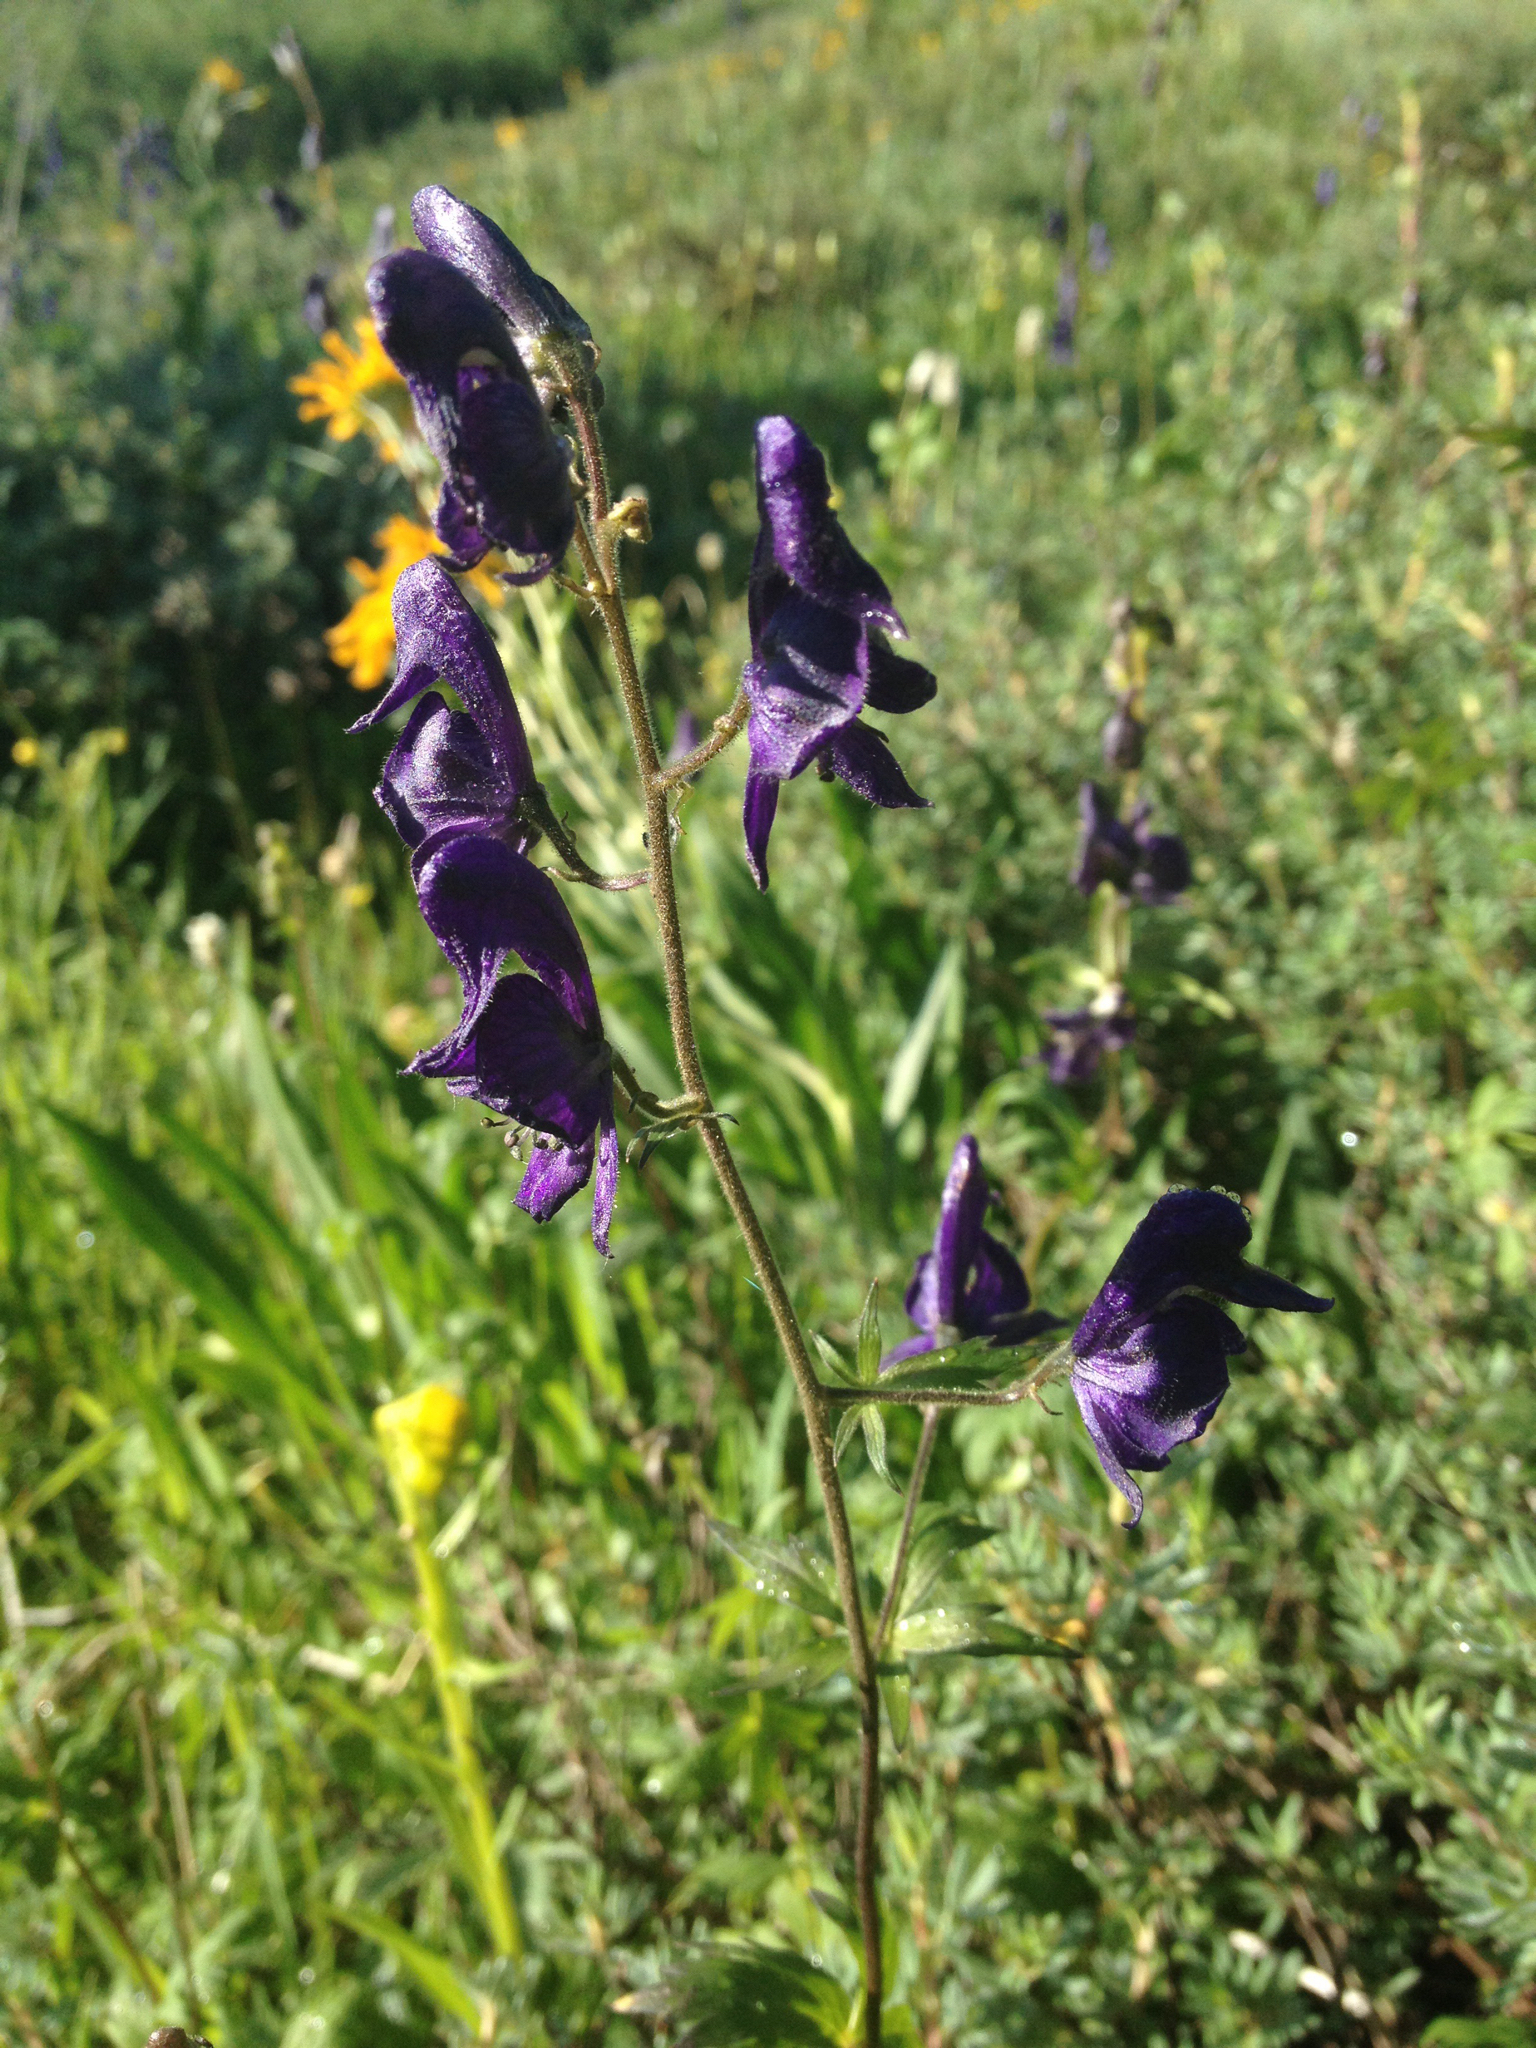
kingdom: Plantae
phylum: Tracheophyta
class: Magnoliopsida
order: Ranunculales
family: Ranunculaceae
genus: Aconitum
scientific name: Aconitum columbianum
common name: Columbia aconite
